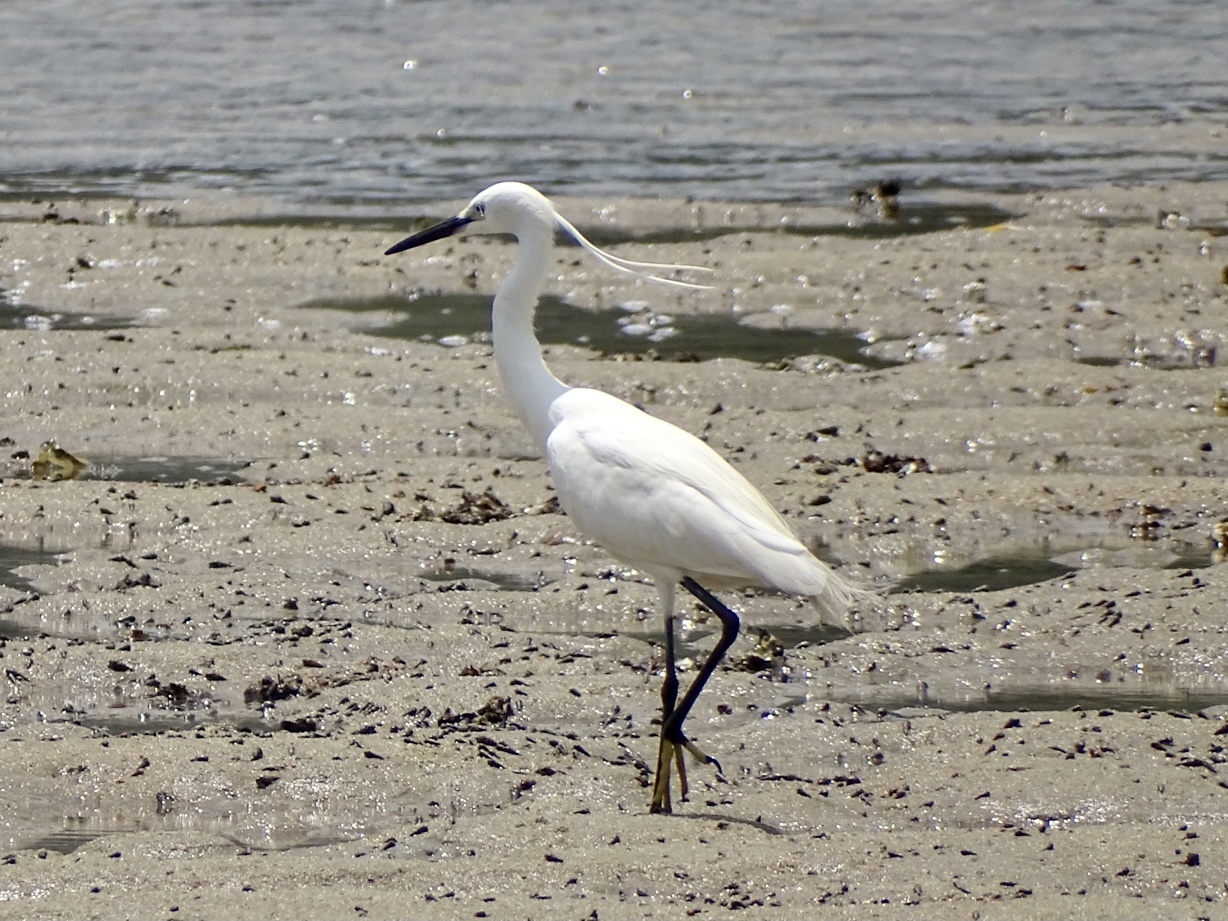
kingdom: Animalia
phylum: Chordata
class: Aves
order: Pelecaniformes
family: Ardeidae
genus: Egretta
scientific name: Egretta garzetta
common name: Little egret
